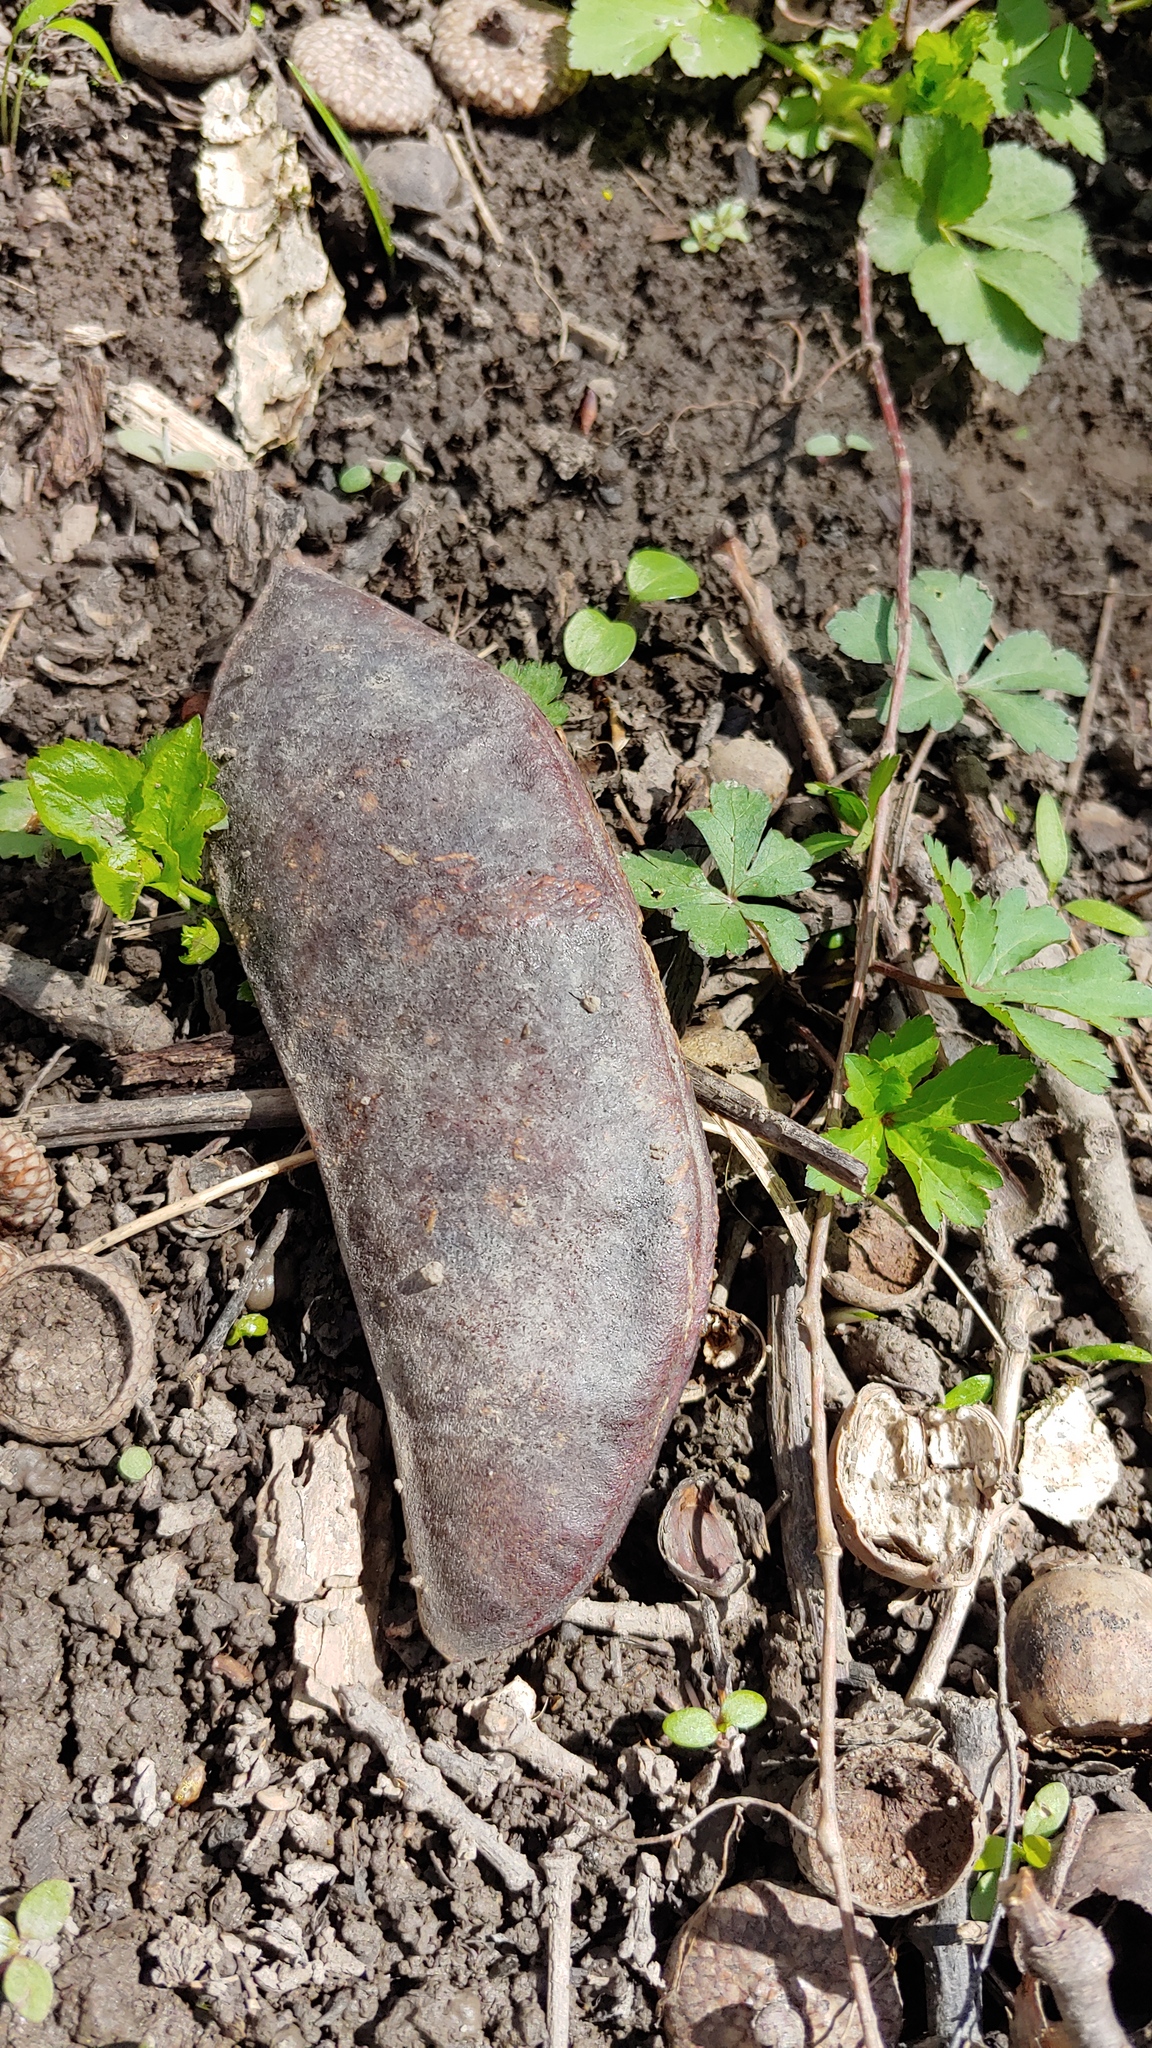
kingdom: Plantae
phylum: Tracheophyta
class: Magnoliopsida
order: Fabales
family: Fabaceae
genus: Gymnocladus
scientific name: Gymnocladus dioicus
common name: Kentucky coffee-tree
